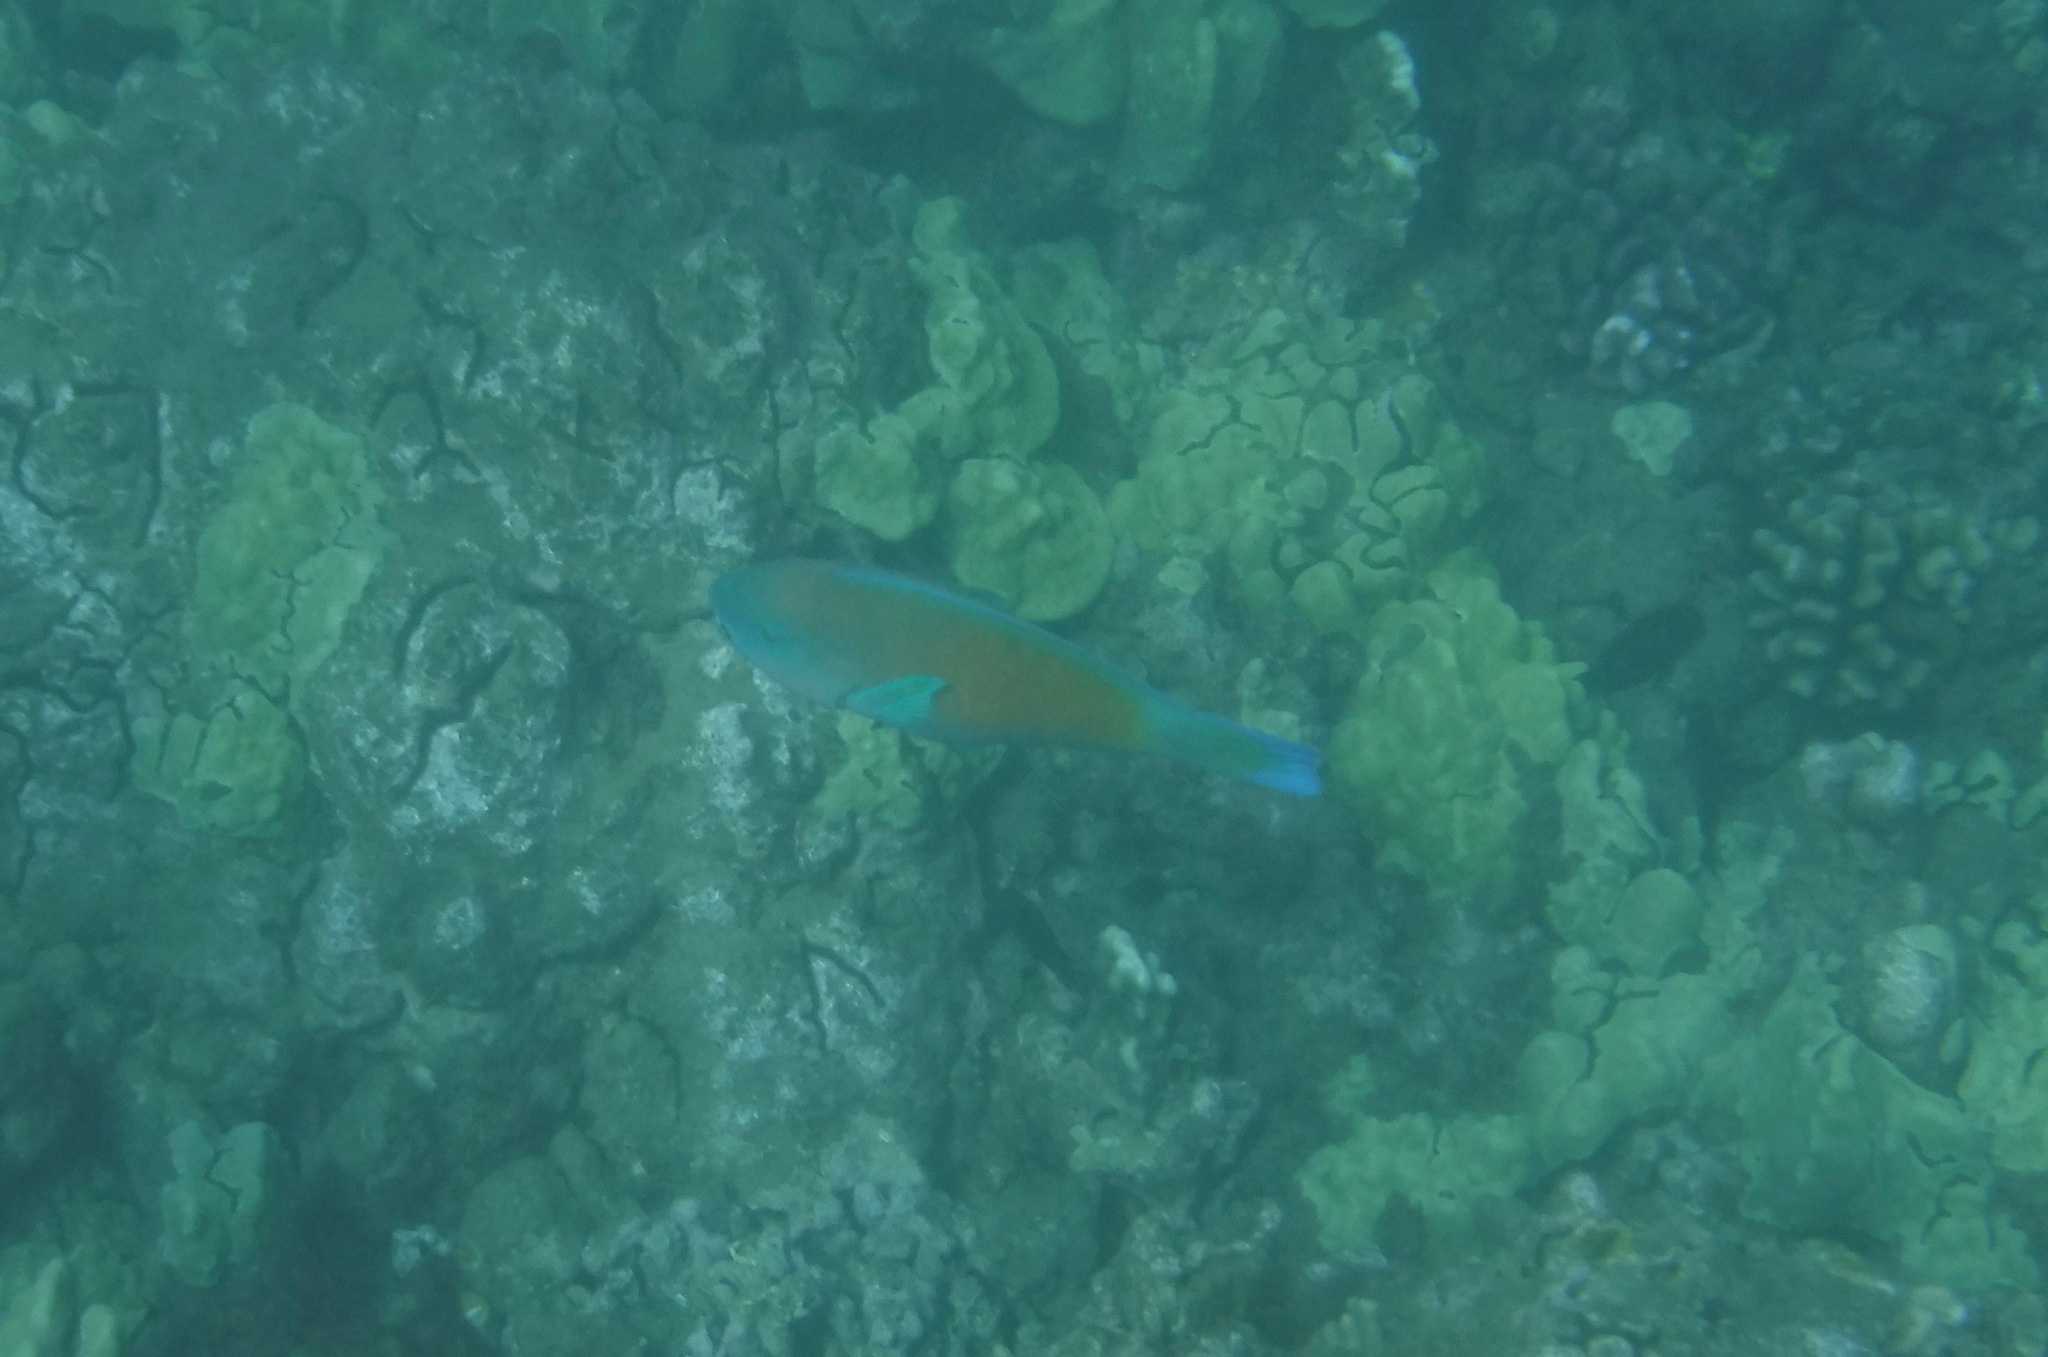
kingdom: Animalia
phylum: Chordata
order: Perciformes
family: Scaridae
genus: Chlorurus
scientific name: Chlorurus spilurus
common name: Bullethead parrotfish
